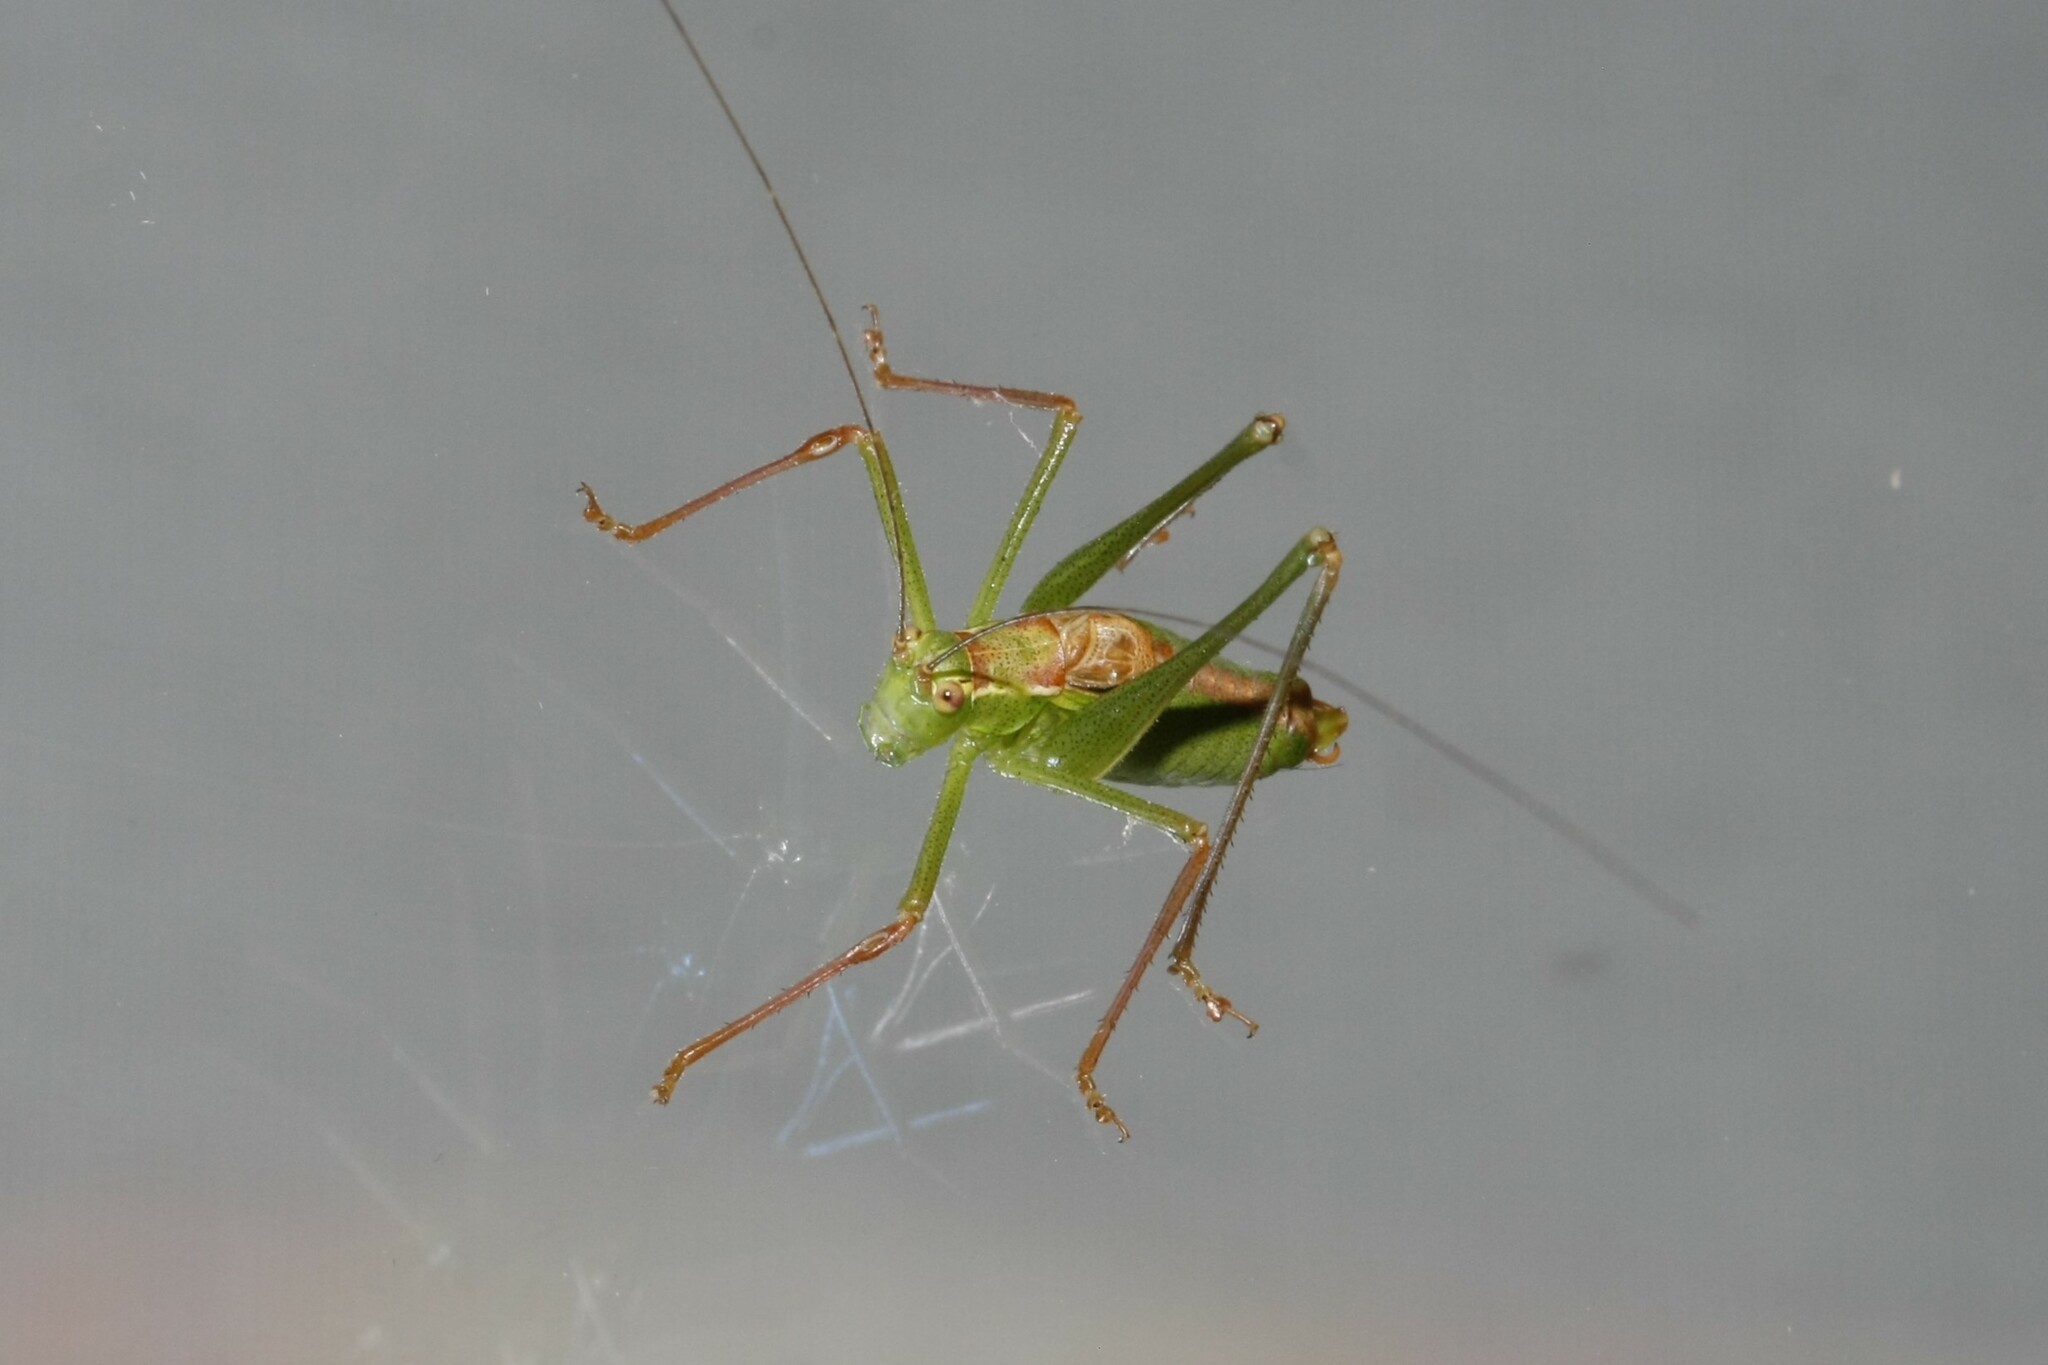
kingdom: Animalia
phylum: Arthropoda
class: Insecta
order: Orthoptera
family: Tettigoniidae
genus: Leptophyes
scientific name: Leptophyes punctatissima
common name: Speckled bush-cricket
